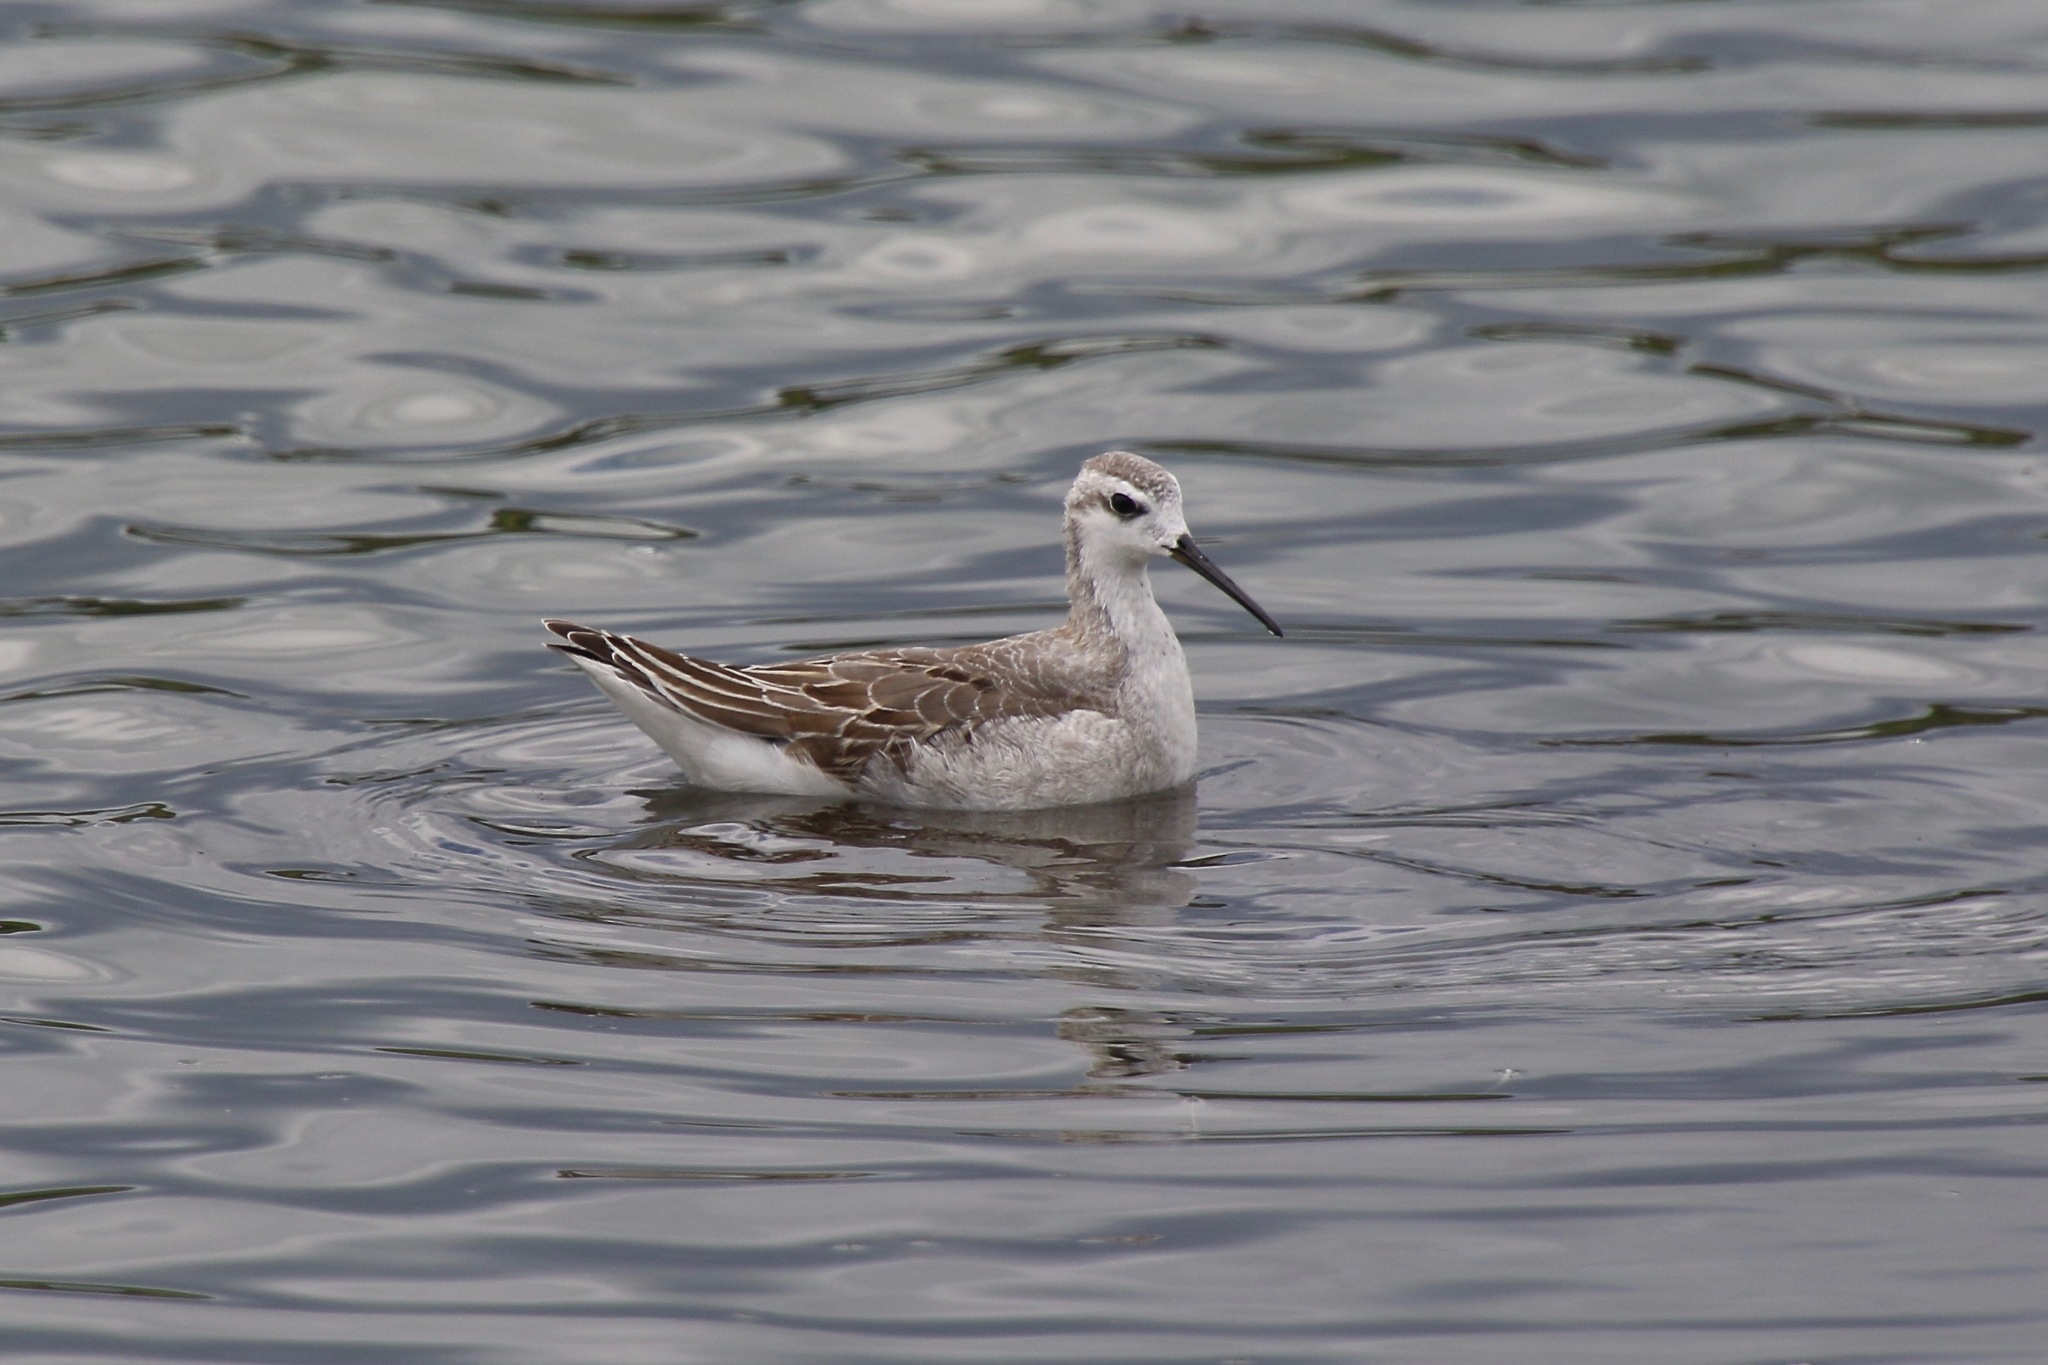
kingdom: Animalia
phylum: Chordata
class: Aves
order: Charadriiformes
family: Scolopacidae
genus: Phalaropus
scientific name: Phalaropus tricolor
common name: Wilson's phalarope
